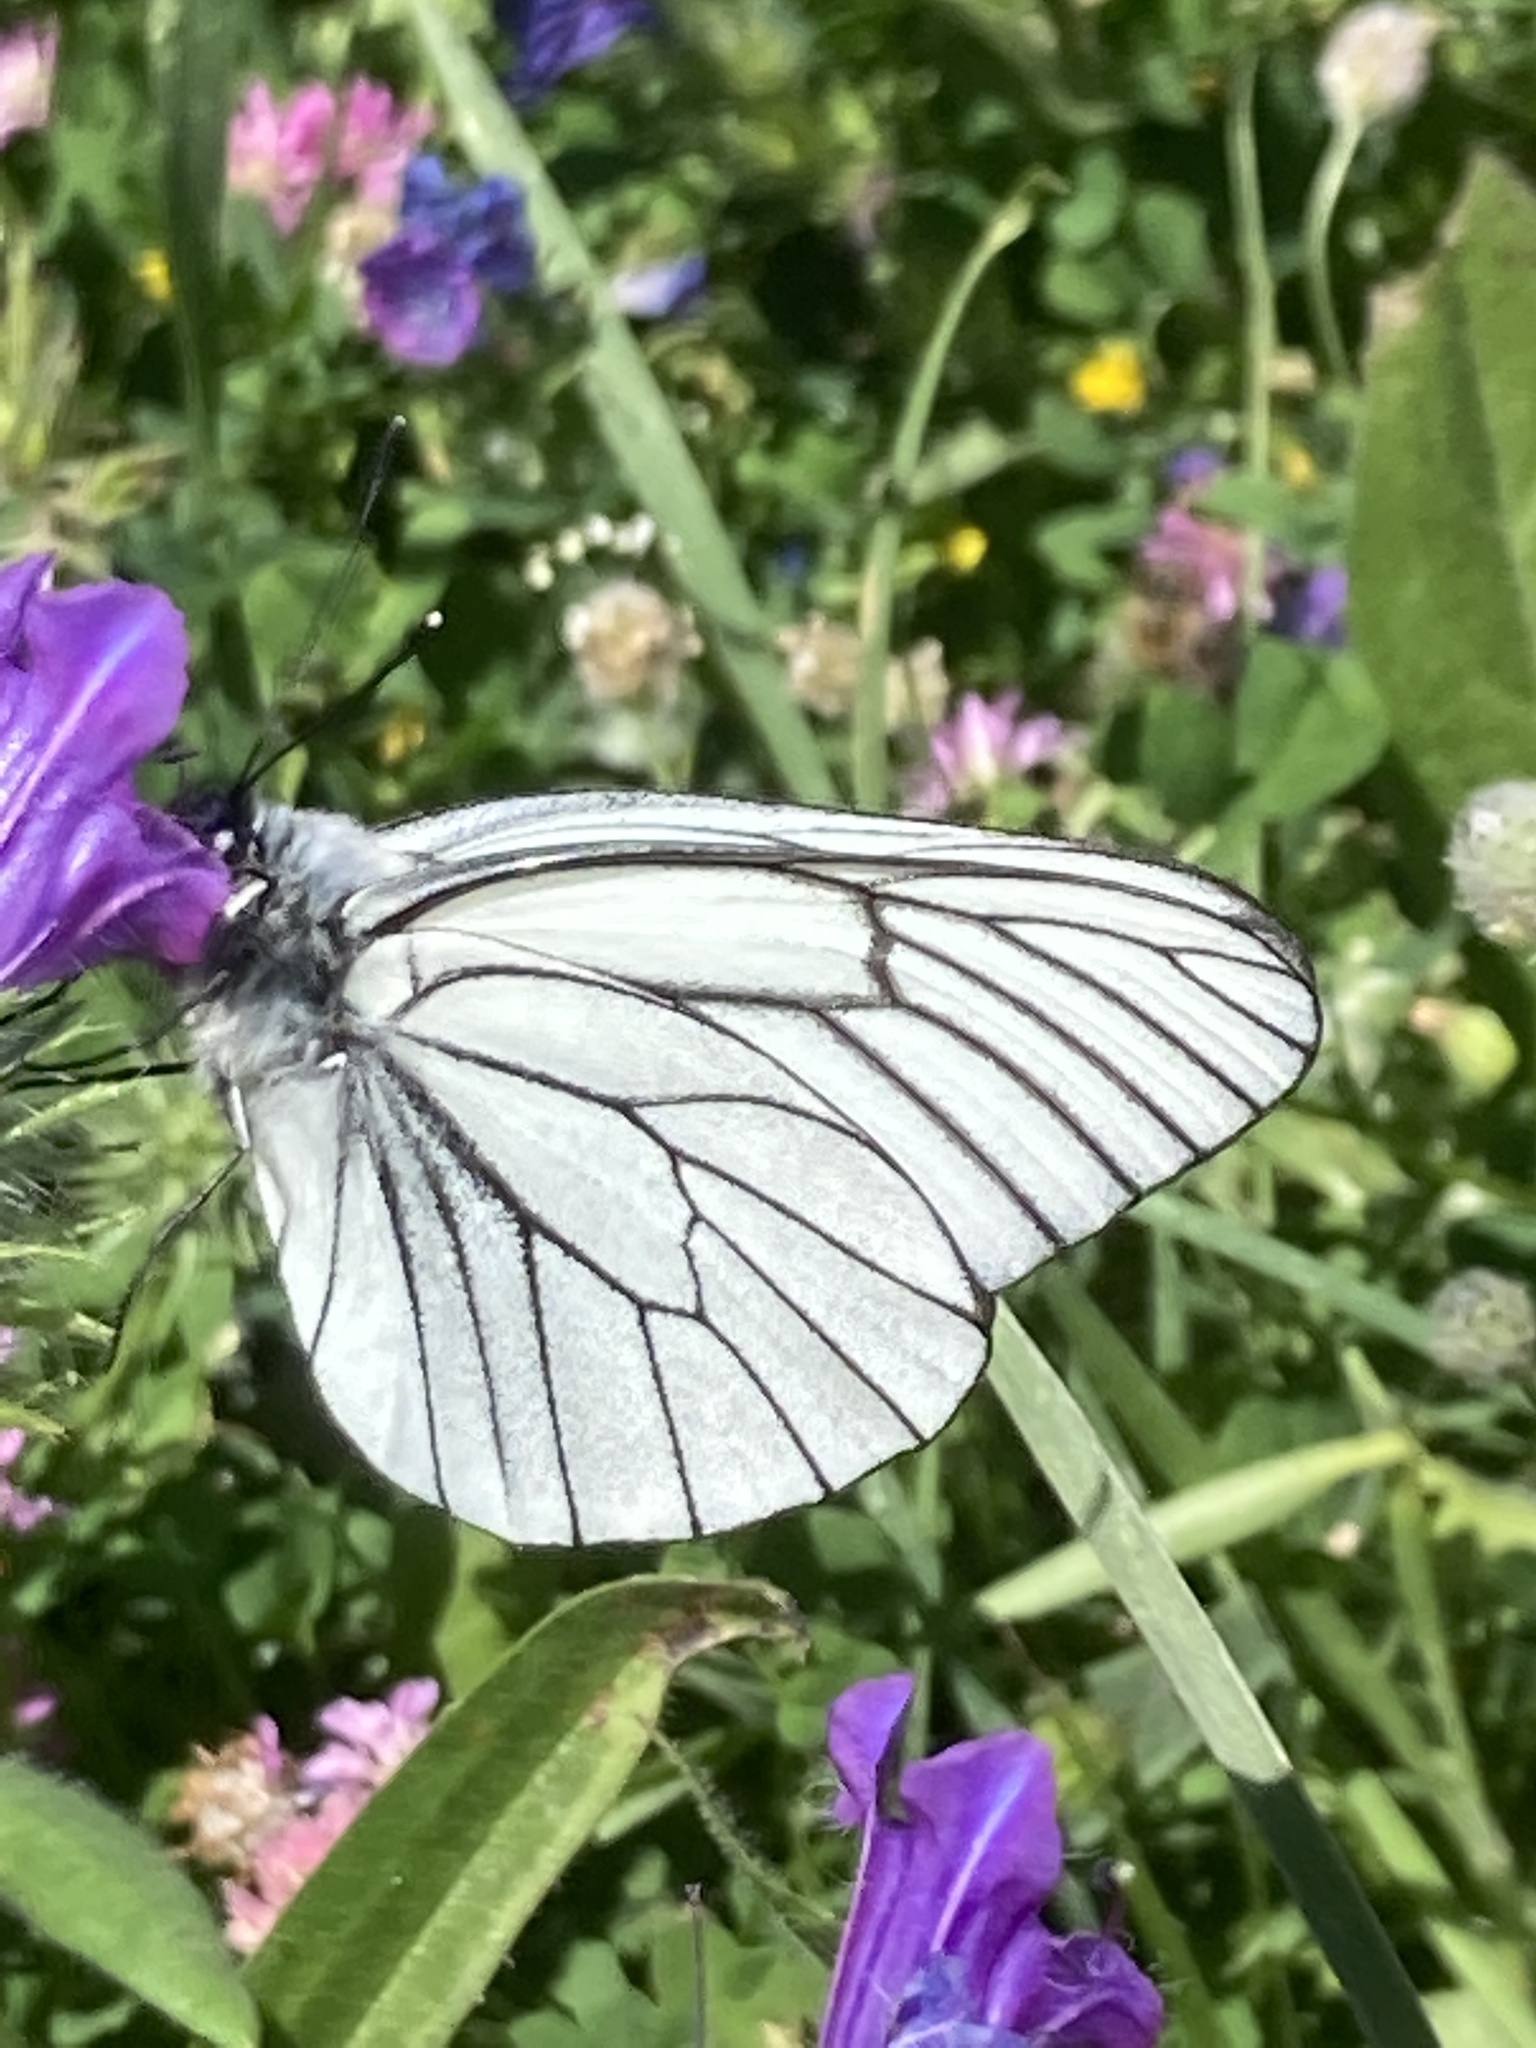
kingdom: Plantae
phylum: Tracheophyta
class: Magnoliopsida
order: Boraginales
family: Boraginaceae
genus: Echium
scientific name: Echium plantagineum
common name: Purple viper's-bugloss
